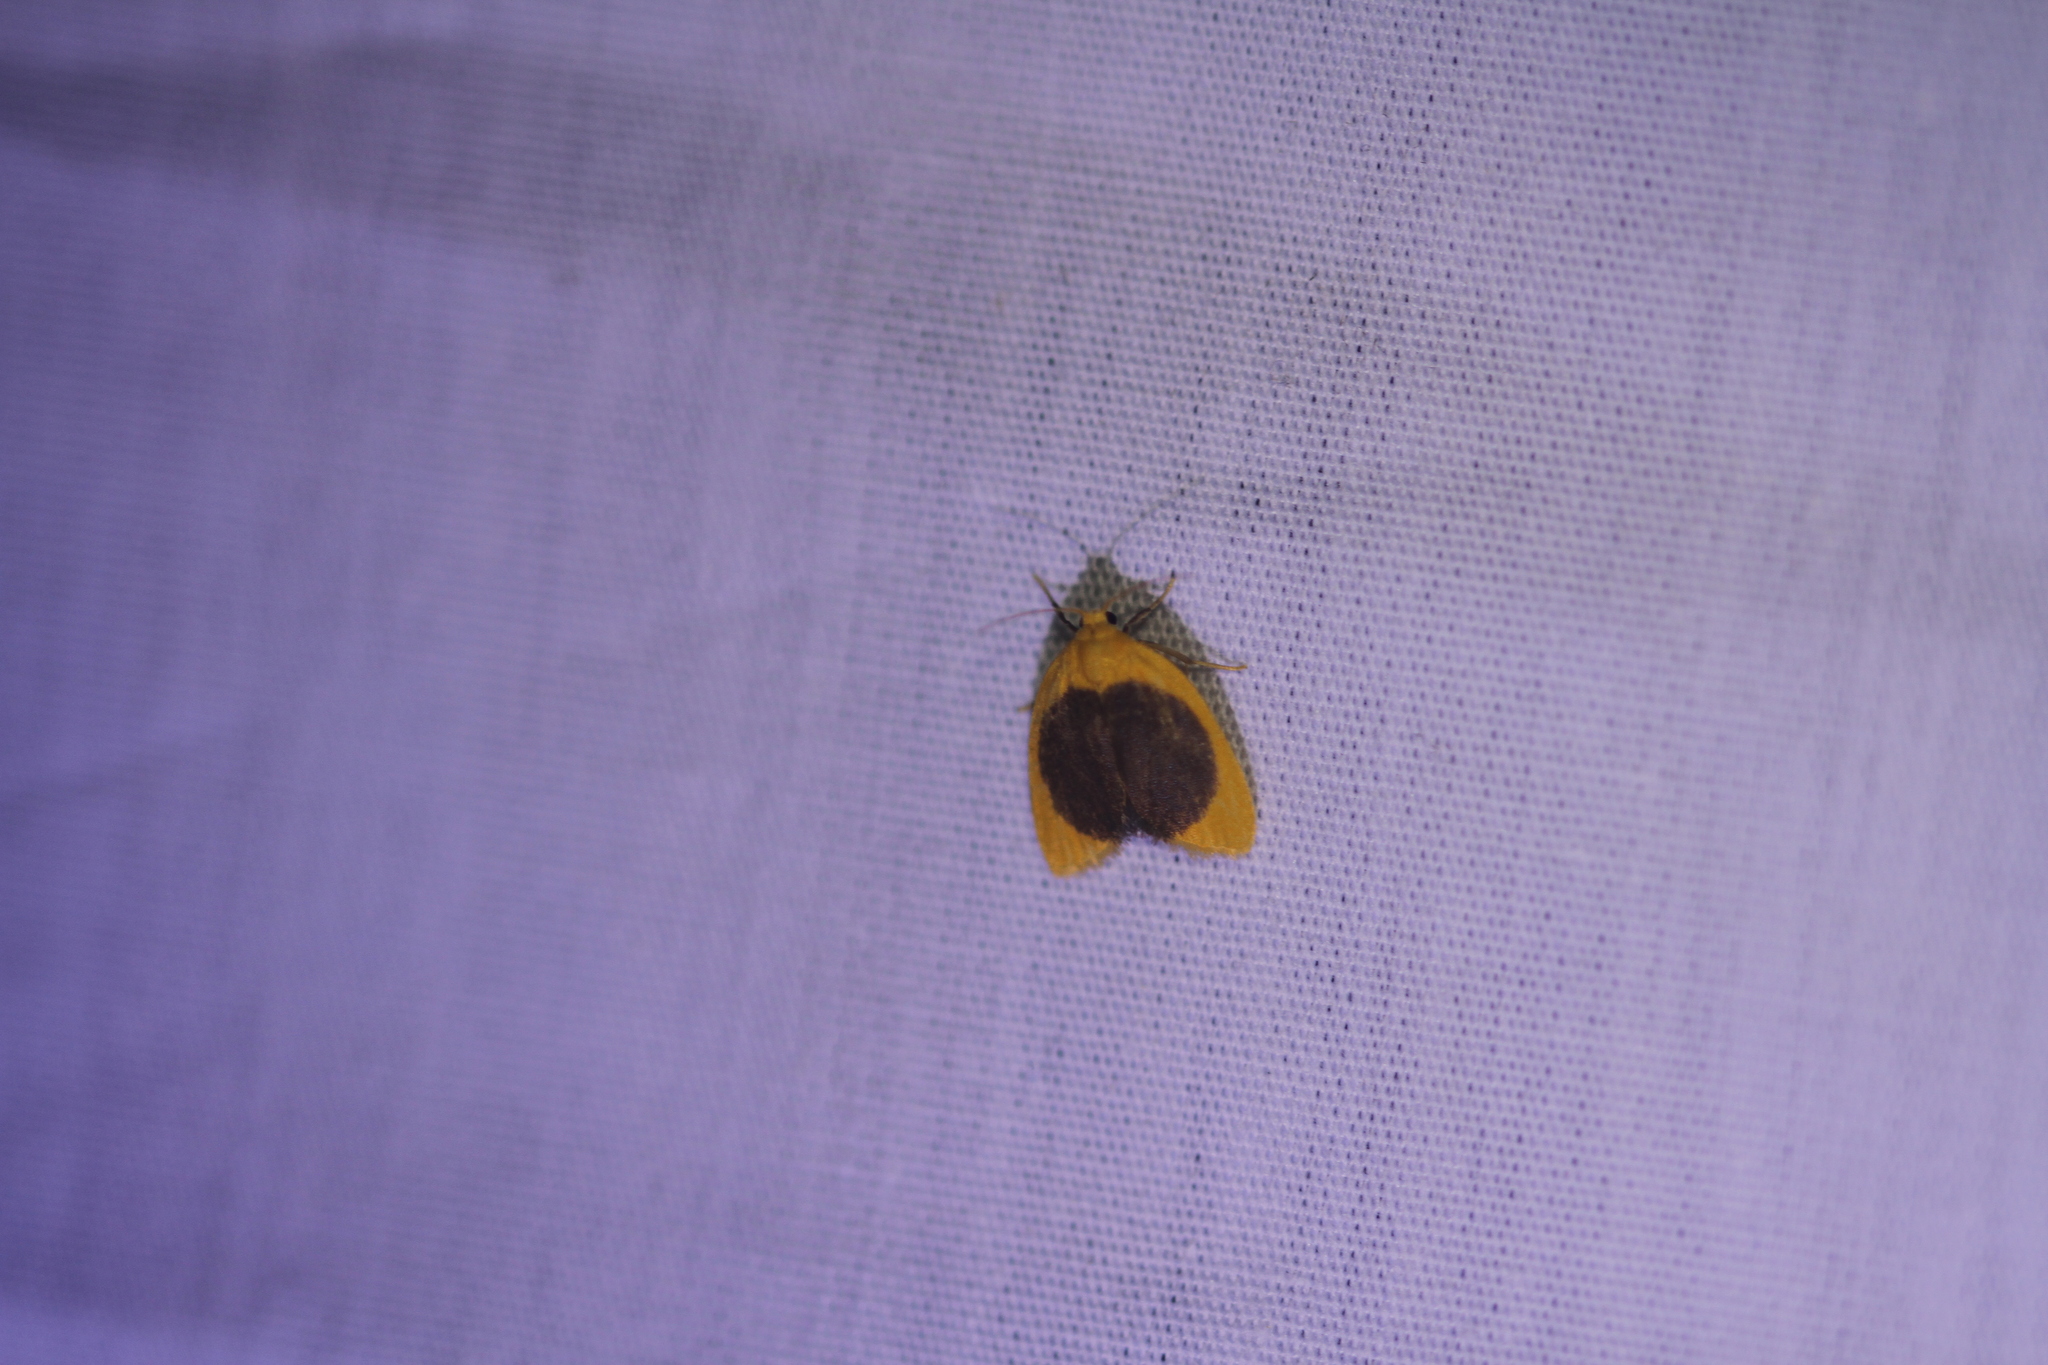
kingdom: Animalia
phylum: Arthropoda
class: Insecta
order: Lepidoptera
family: Erebidae
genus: Pronola
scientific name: Pronola magniplaga
